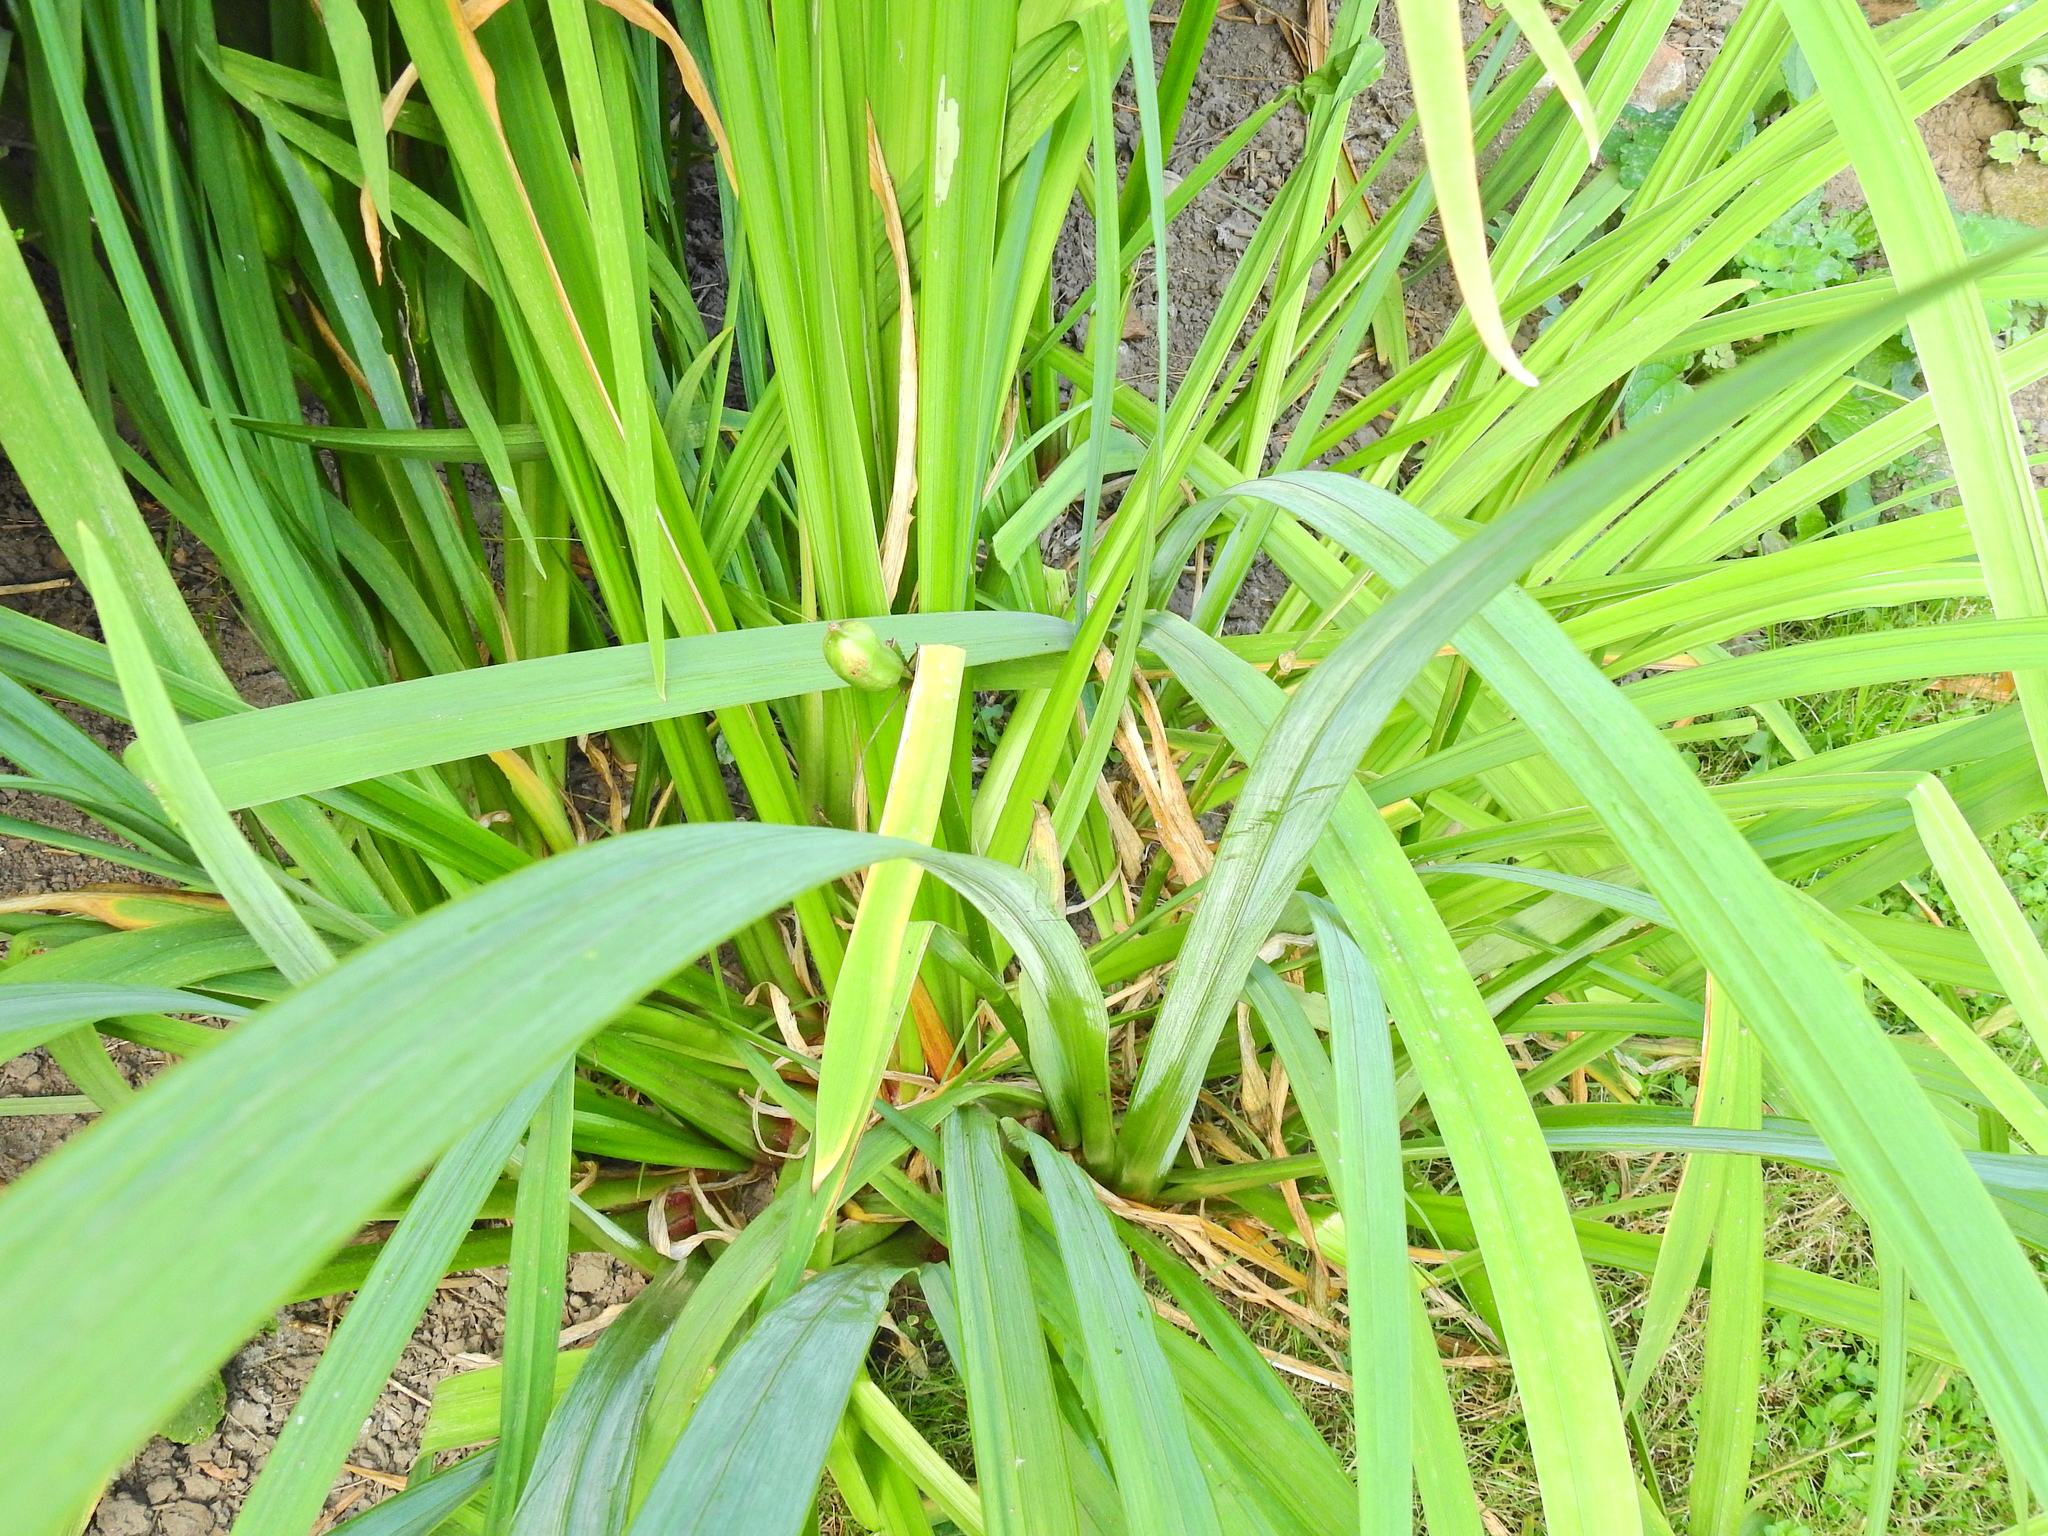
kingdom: Plantae
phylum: Tracheophyta
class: Liliopsida
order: Asparagales
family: Iridaceae
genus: Iris
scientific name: Iris pseudacorus
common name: Yellow flag
